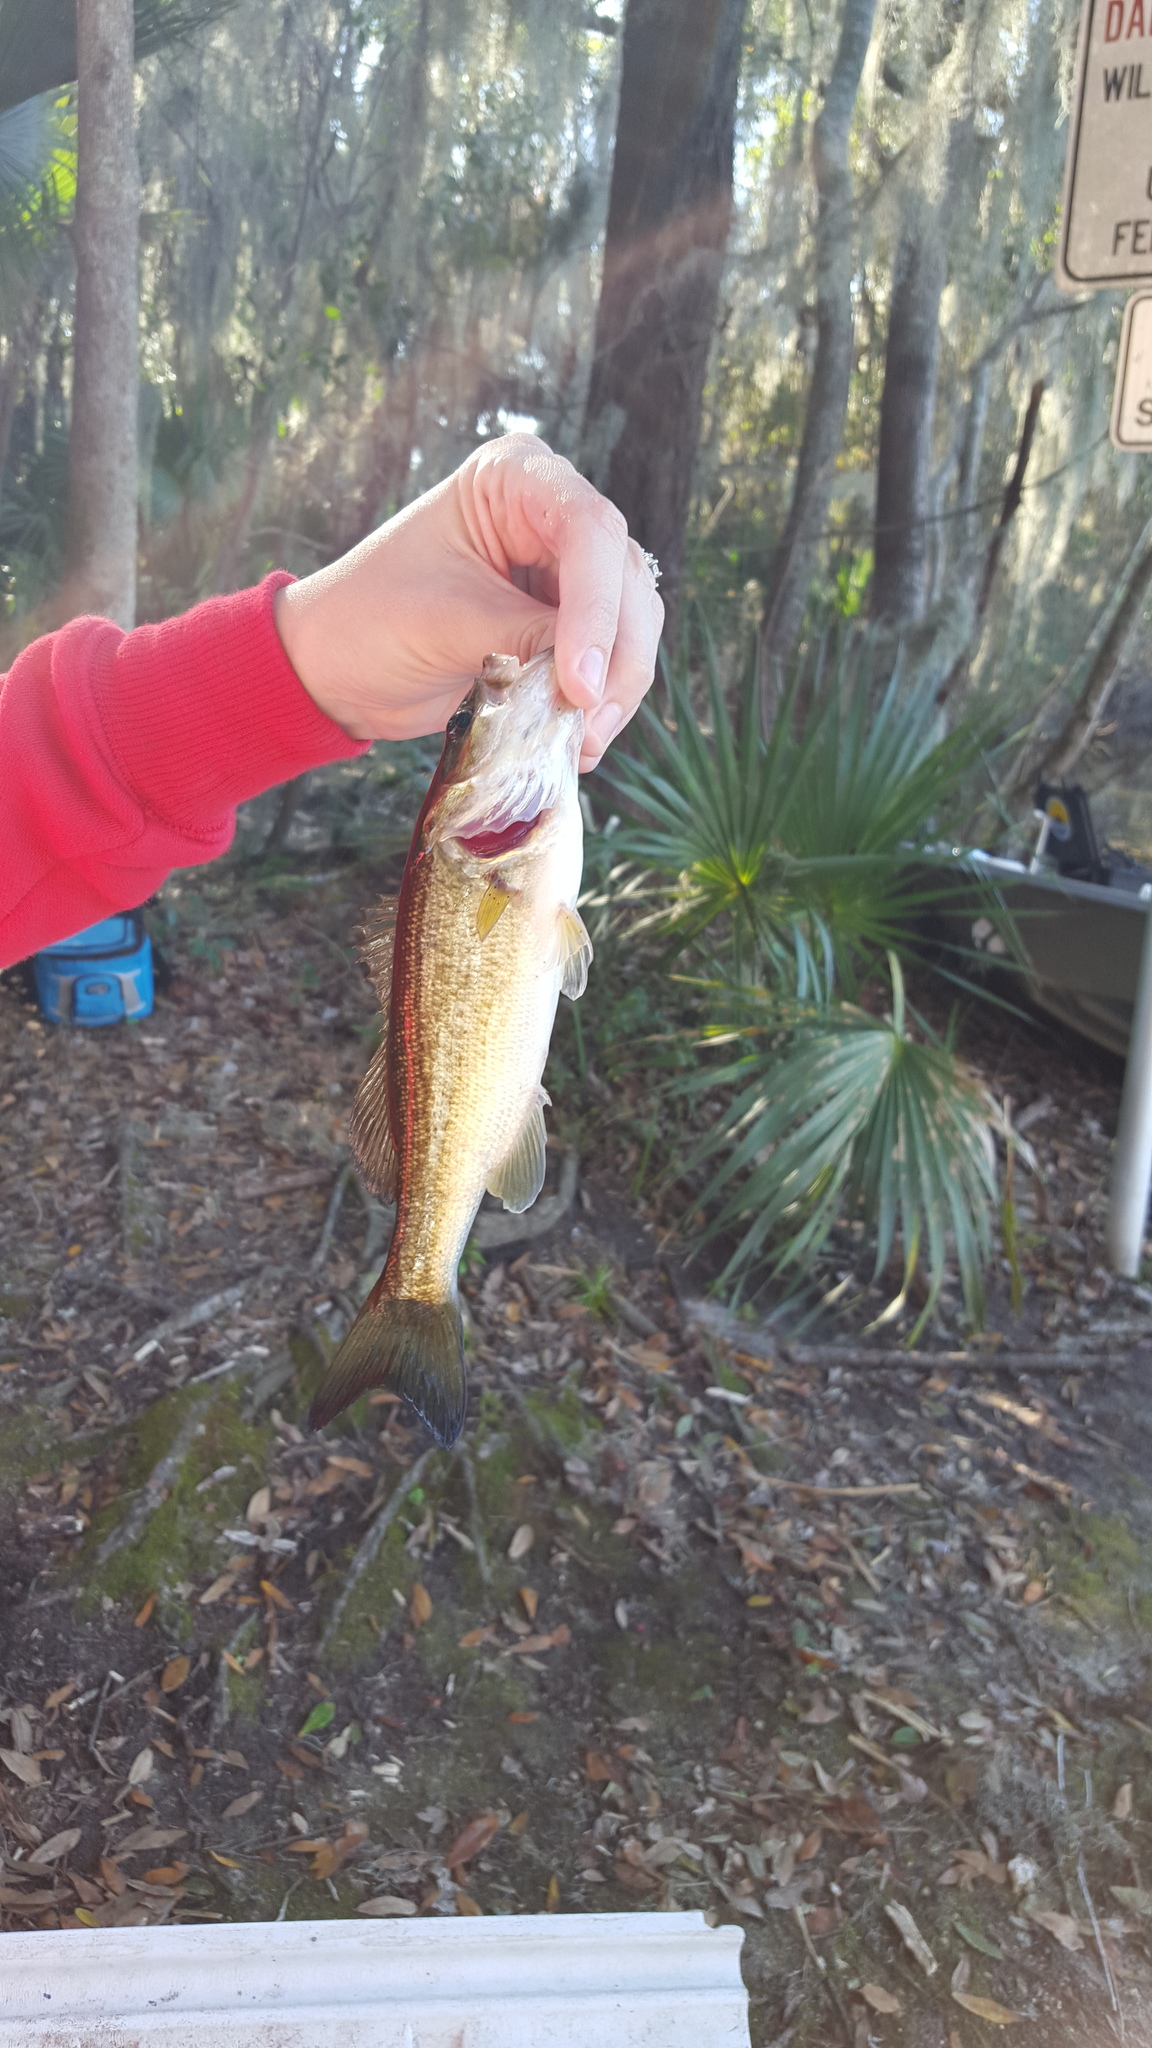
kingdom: Animalia
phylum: Chordata
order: Perciformes
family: Centrarchidae
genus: Micropterus
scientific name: Micropterus salmoides
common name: Largemouth bass
